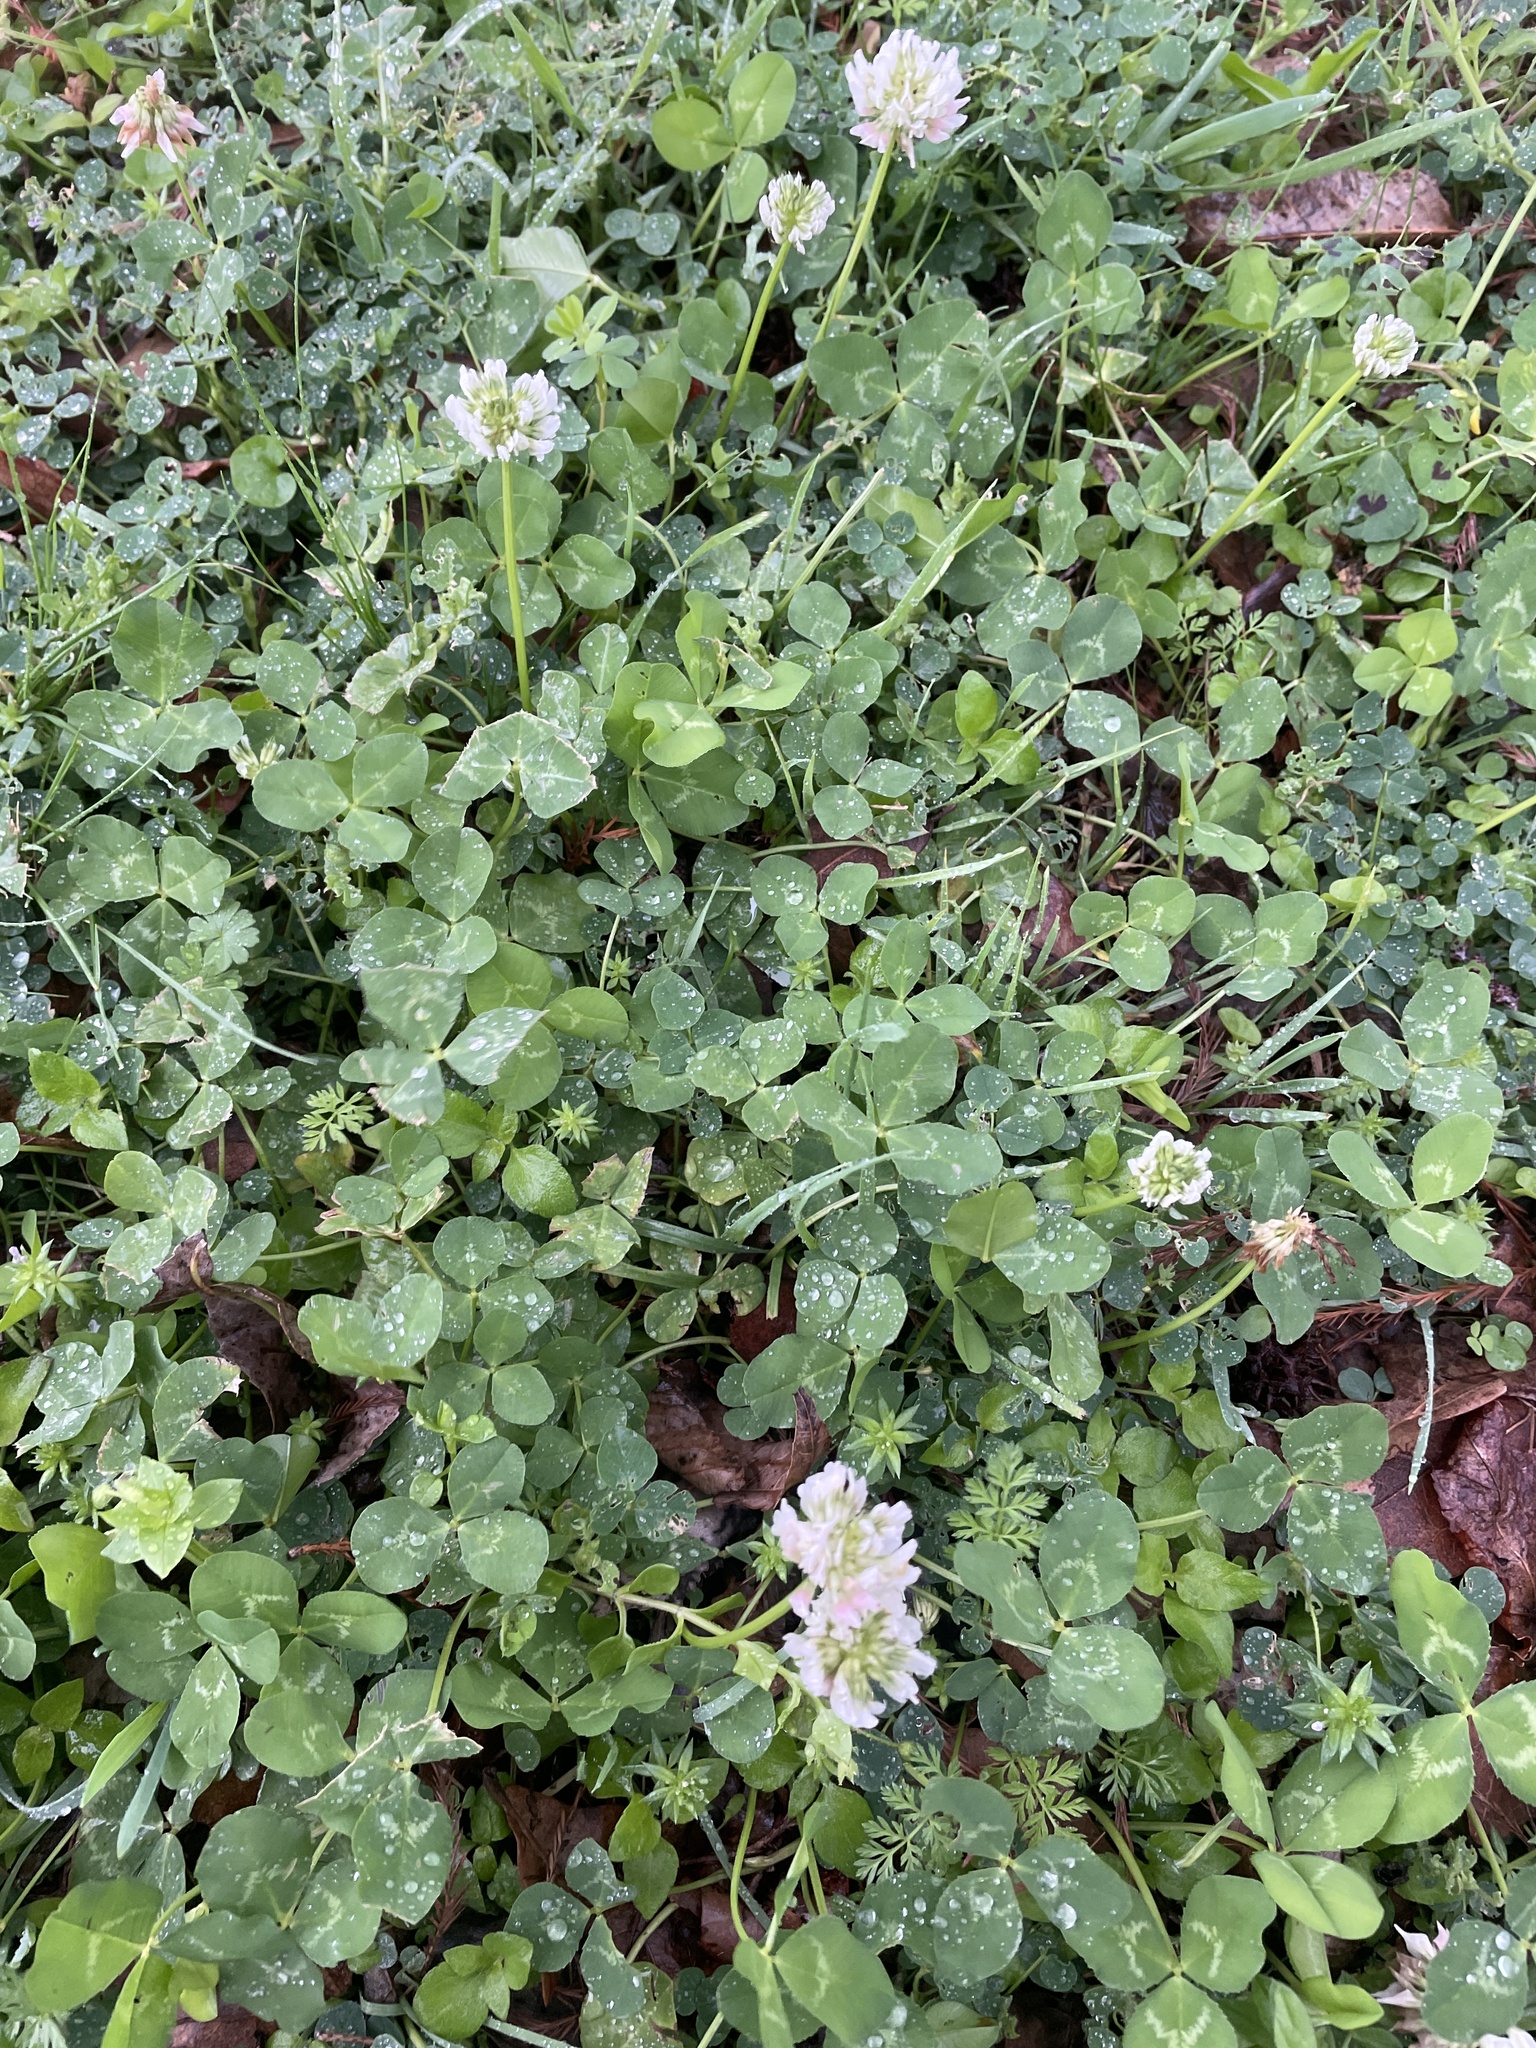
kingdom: Plantae
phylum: Tracheophyta
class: Magnoliopsida
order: Fabales
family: Fabaceae
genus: Trifolium
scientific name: Trifolium repens
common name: White clover
